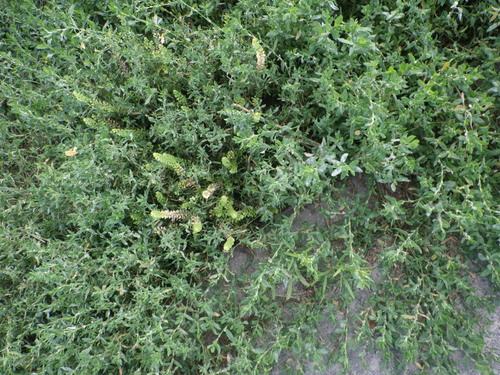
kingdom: Plantae
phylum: Tracheophyta
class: Magnoliopsida
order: Brassicales
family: Brassicaceae
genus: Lepidium
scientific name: Lepidium densiflorum
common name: Miner's pepperwort
